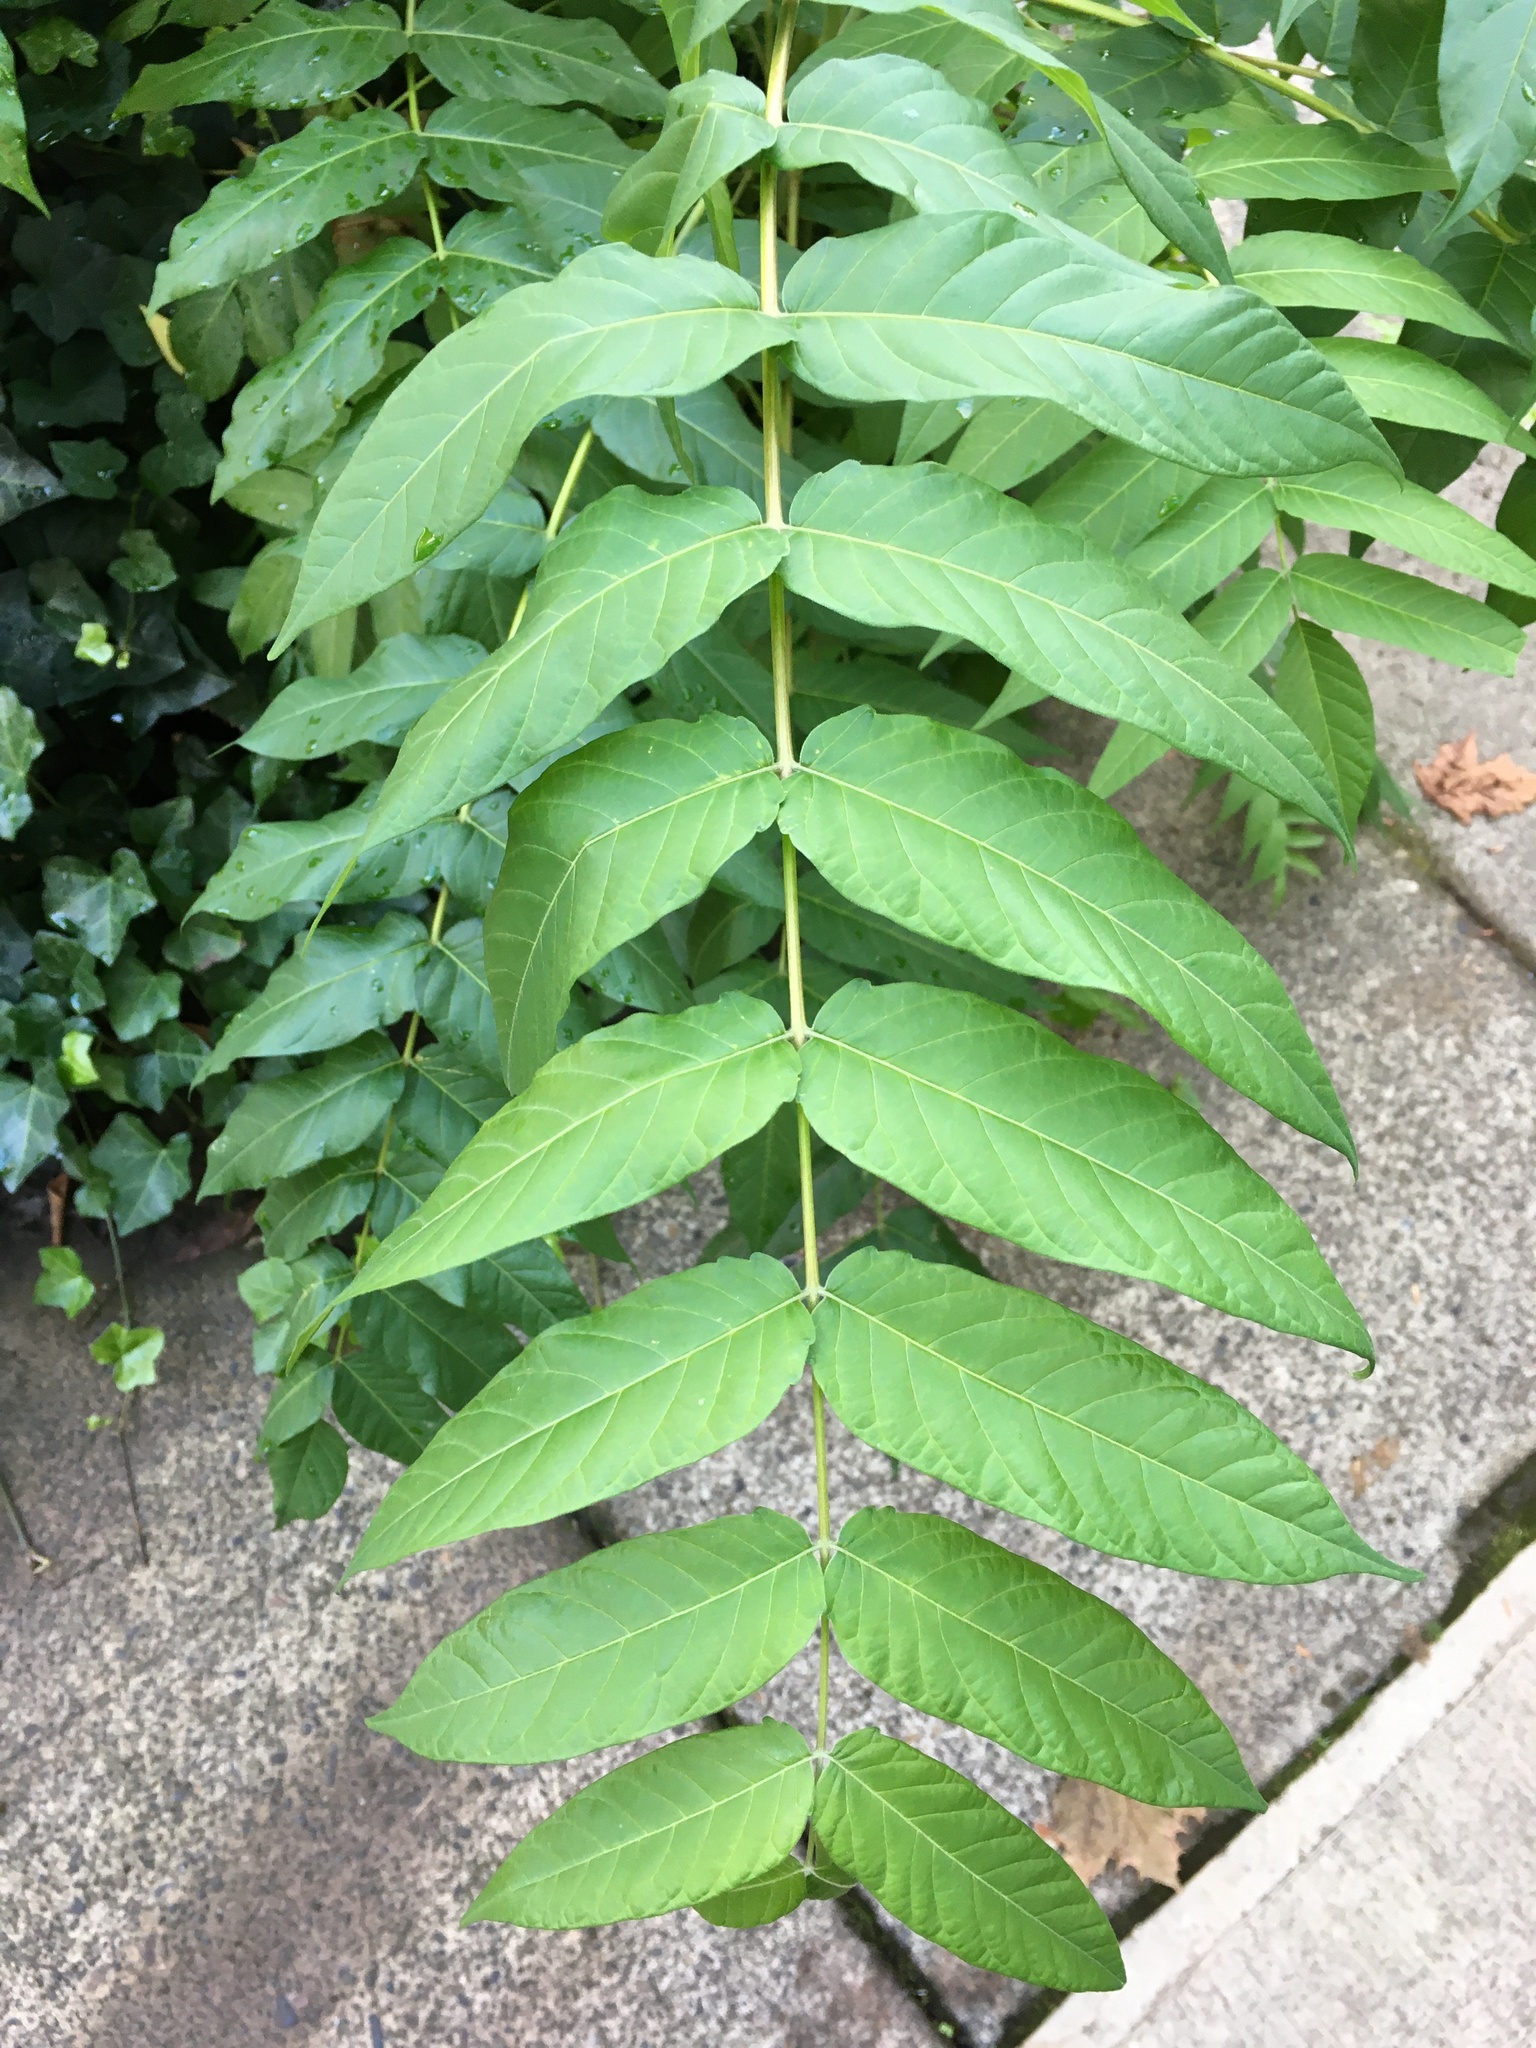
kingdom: Plantae
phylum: Tracheophyta
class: Magnoliopsida
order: Sapindales
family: Simaroubaceae
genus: Ailanthus
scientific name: Ailanthus altissima
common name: Tree-of-heaven
